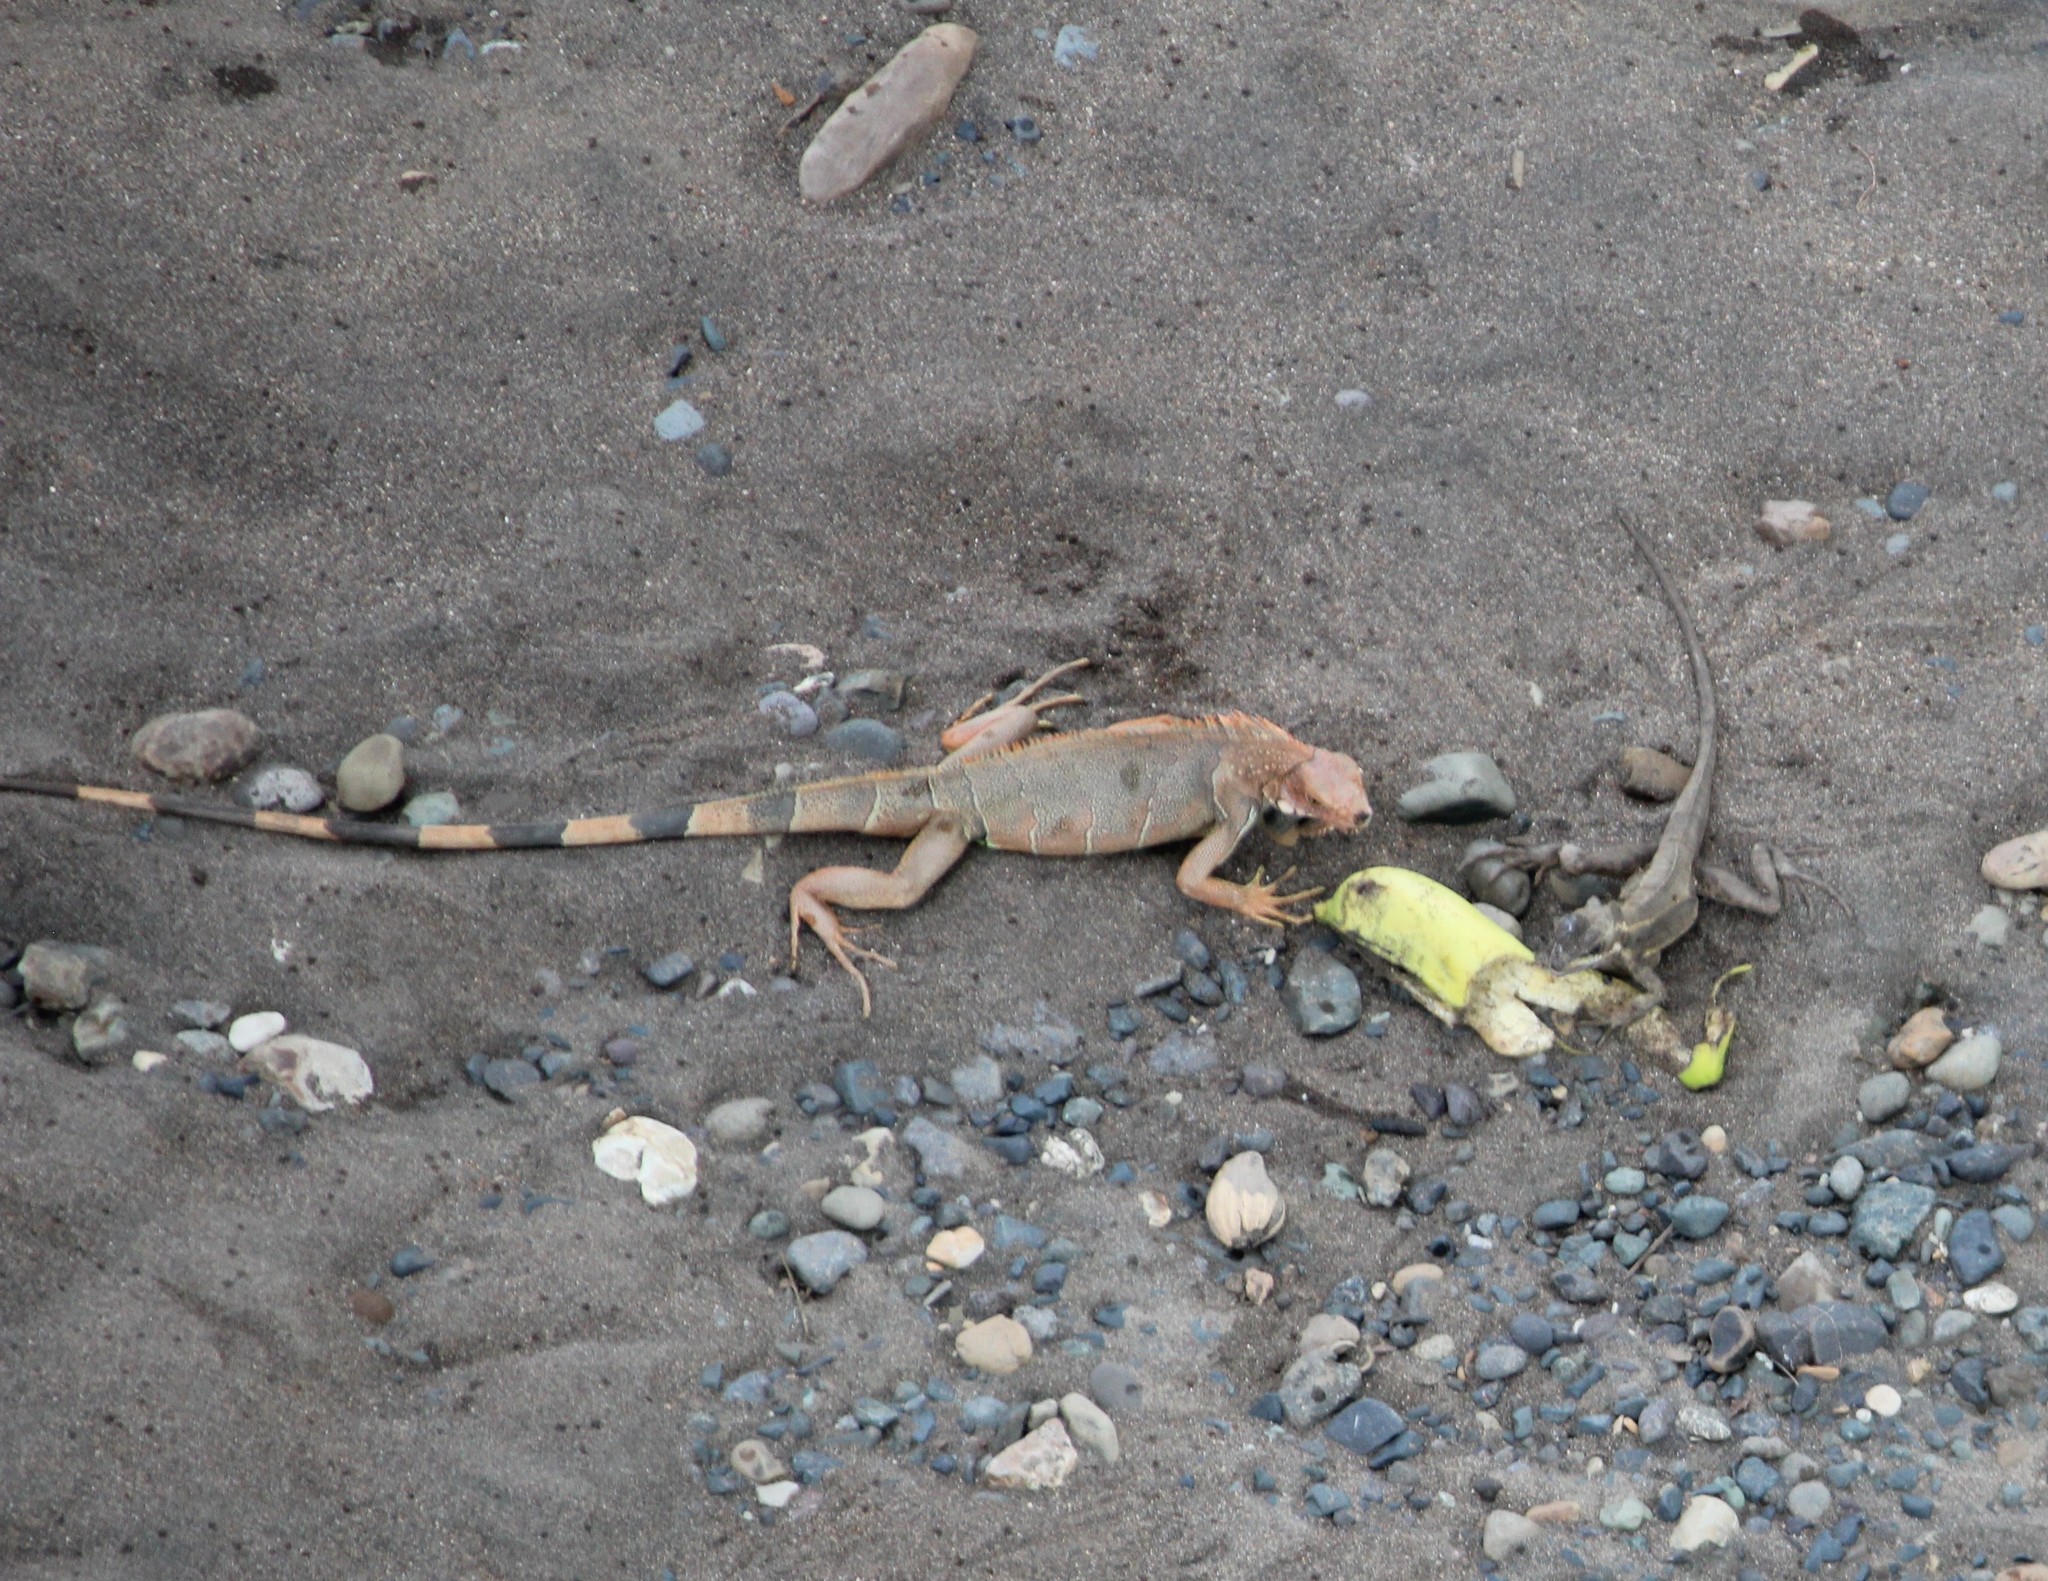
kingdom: Animalia
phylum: Chordata
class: Squamata
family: Iguanidae
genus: Iguana
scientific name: Iguana iguana
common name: Green iguana
